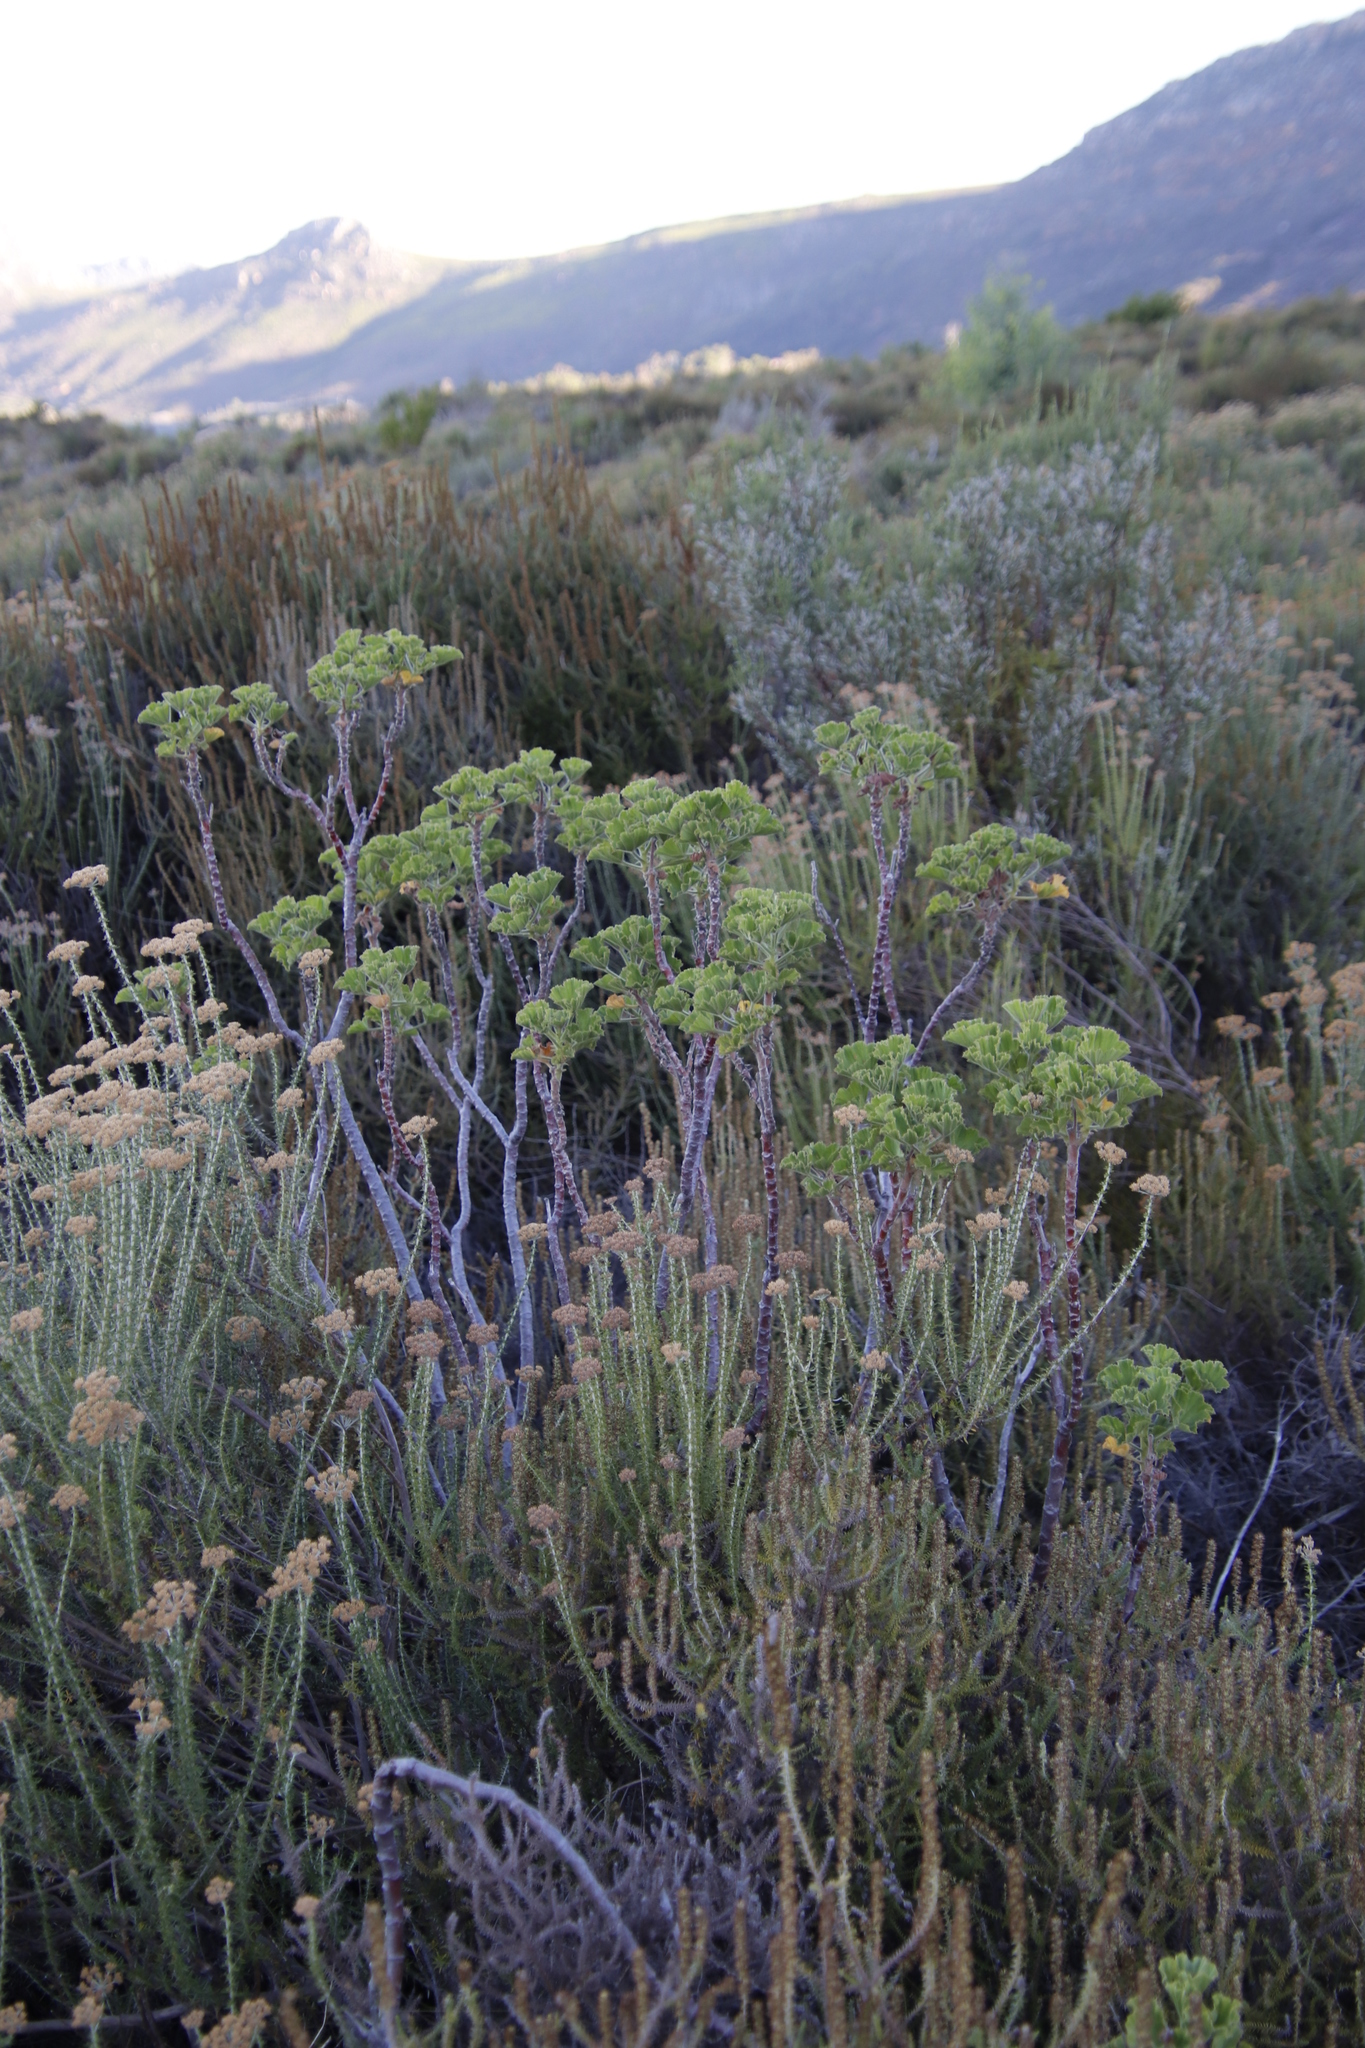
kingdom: Plantae
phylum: Tracheophyta
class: Magnoliopsida
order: Geraniales
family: Geraniaceae
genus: Pelargonium
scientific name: Pelargonium cucullatum
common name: Tree pelargonium
